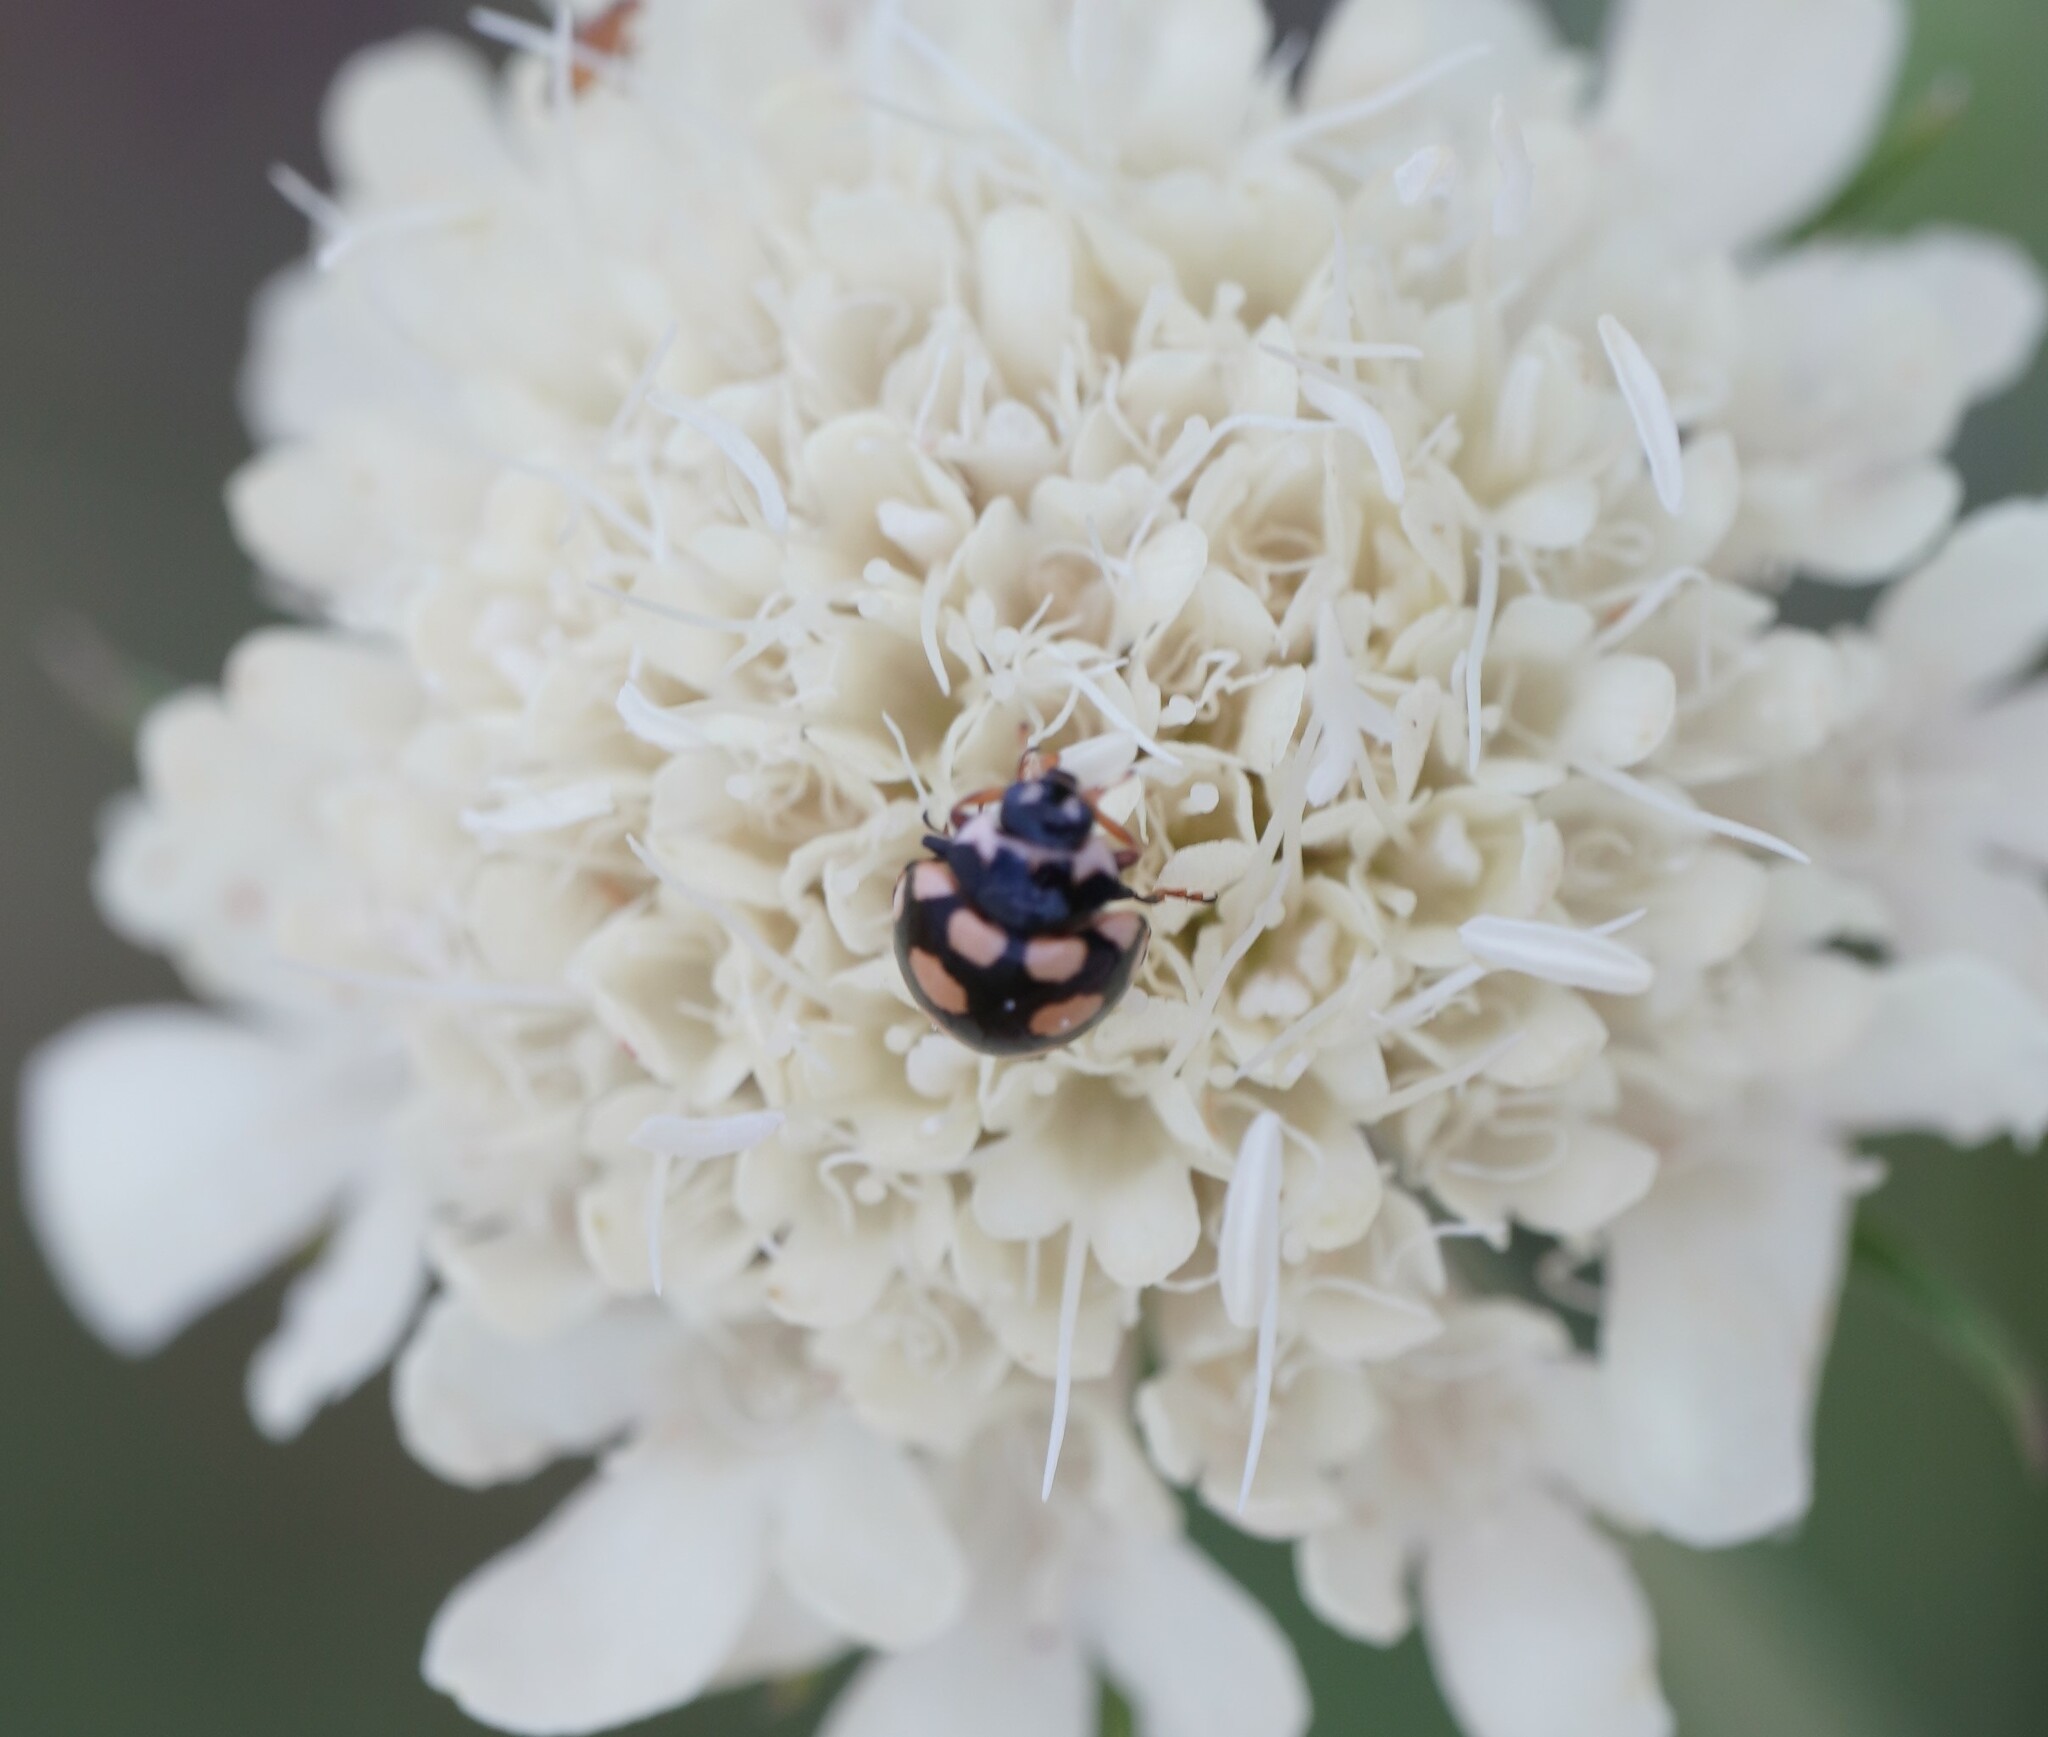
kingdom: Animalia
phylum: Arthropoda
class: Insecta
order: Coleoptera
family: Coccinellidae
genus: Coccinula
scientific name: Coccinula quatuordecimpustulata
